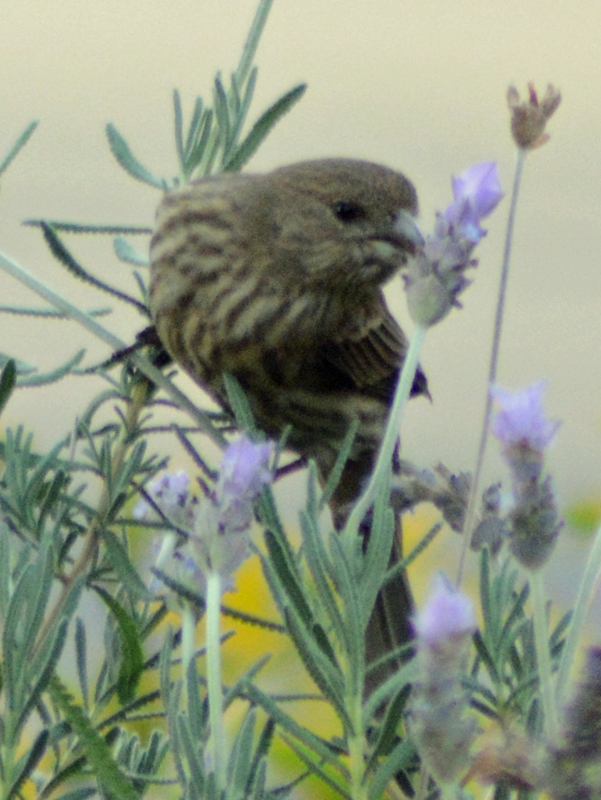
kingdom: Animalia
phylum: Chordata
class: Aves
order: Passeriformes
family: Fringillidae
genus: Haemorhous
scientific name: Haemorhous mexicanus
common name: House finch
